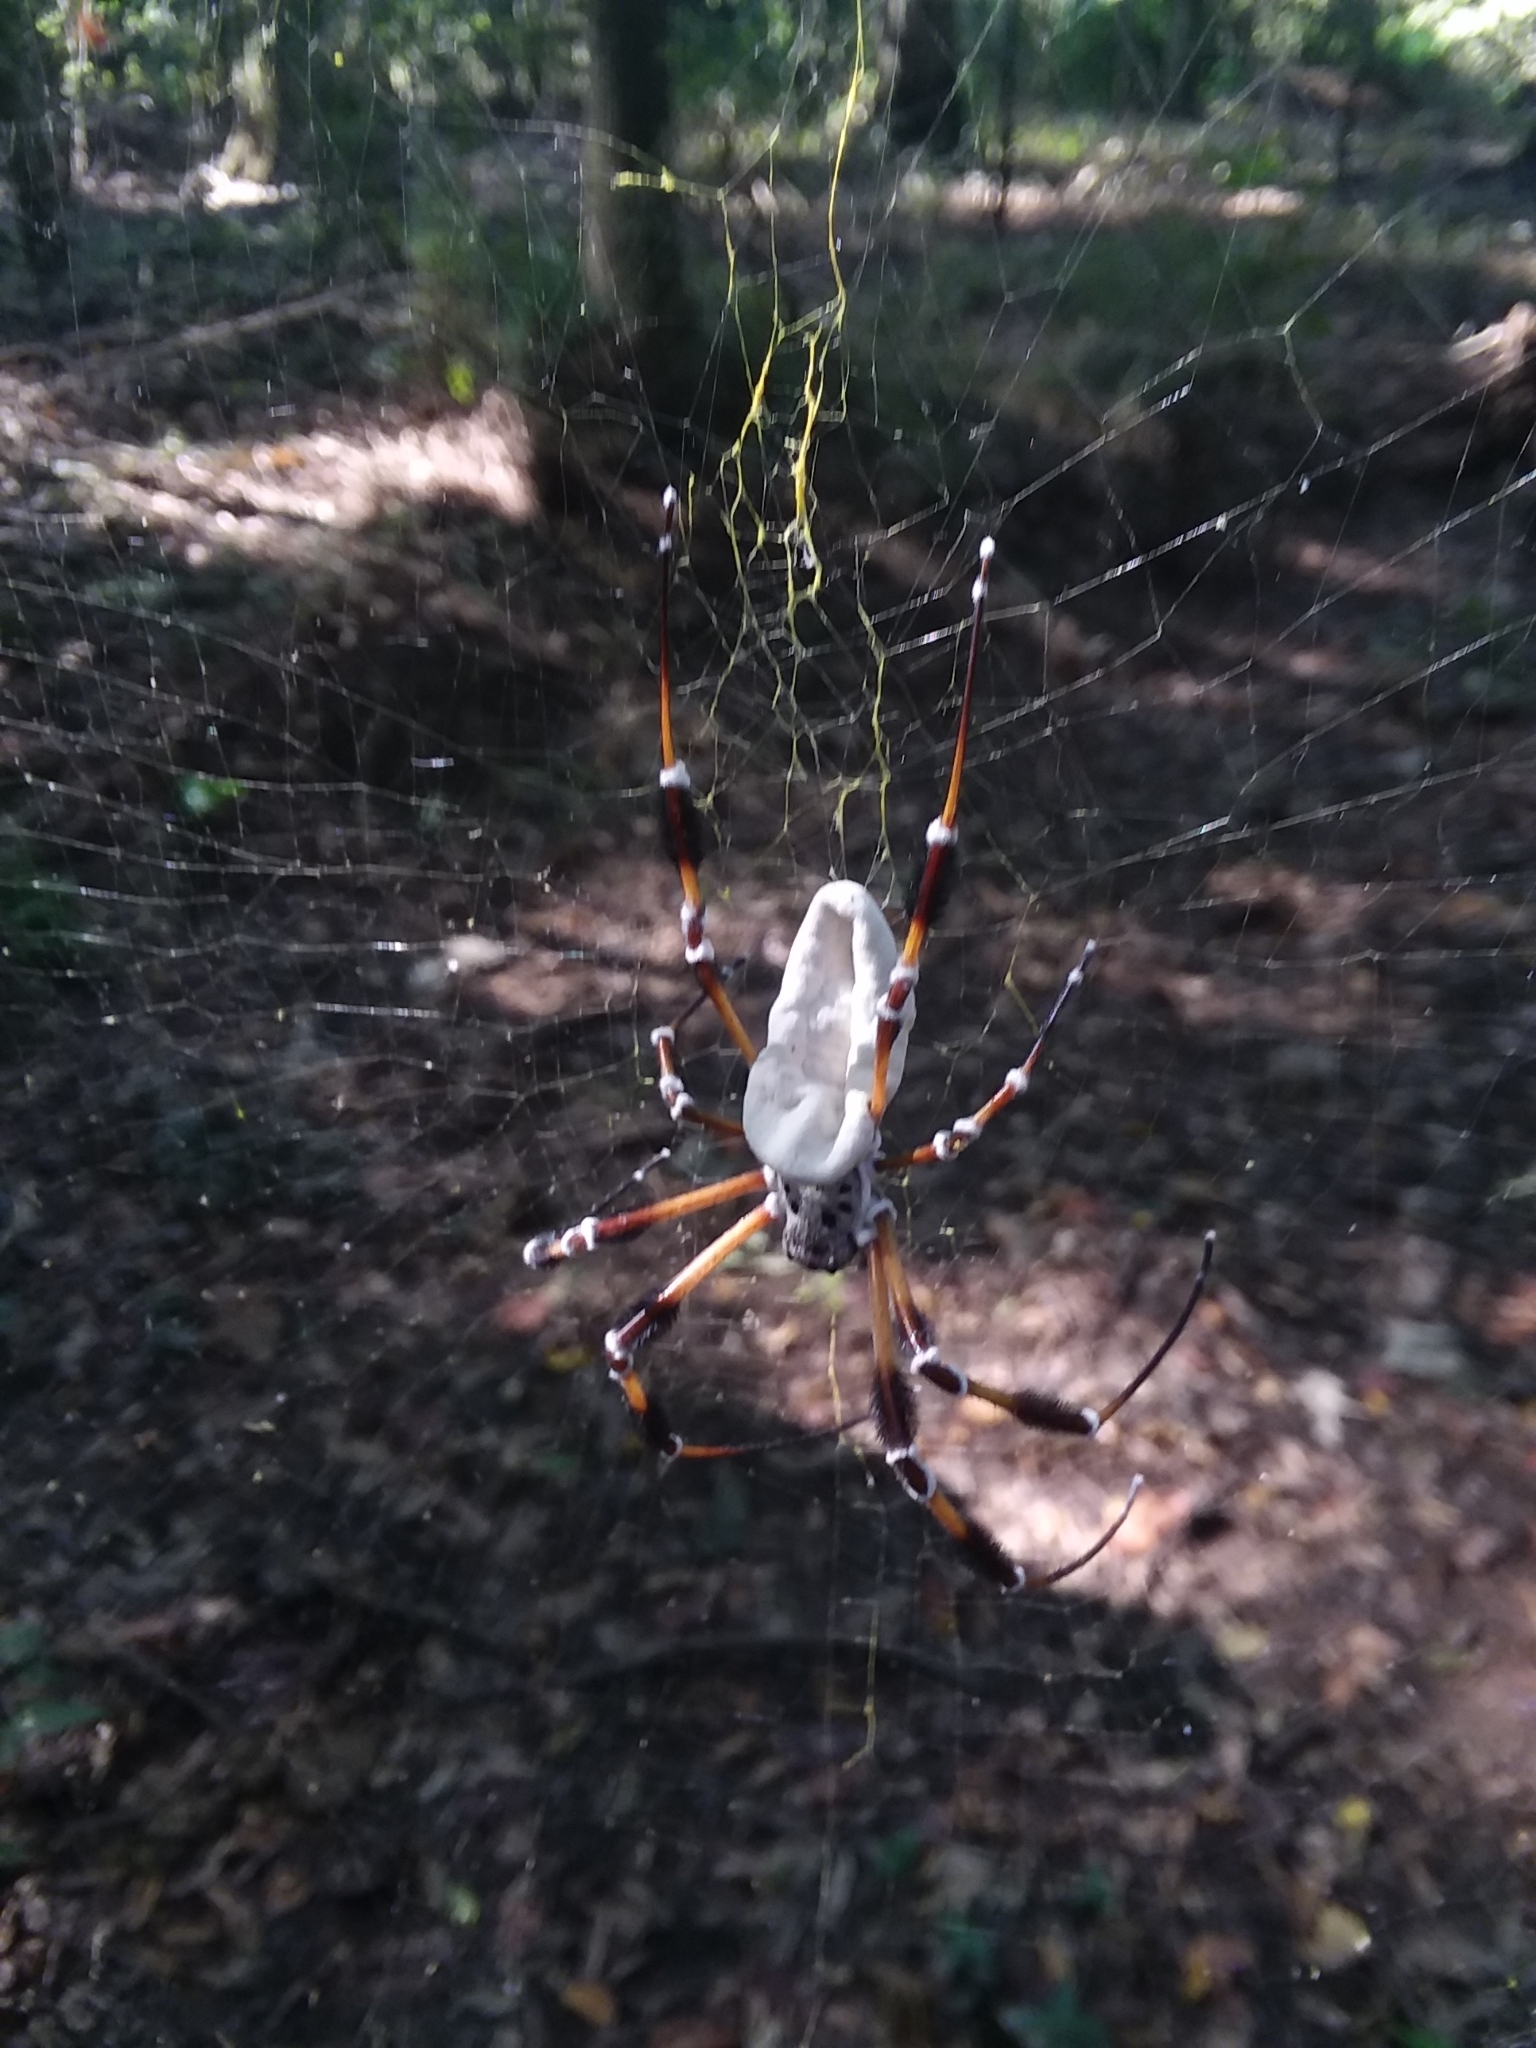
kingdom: Fungi
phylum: Ascomycota
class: Sordariomycetes
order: Hypocreales
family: Cordycipitaceae
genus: Beauveria
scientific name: Beauveria bassiana
